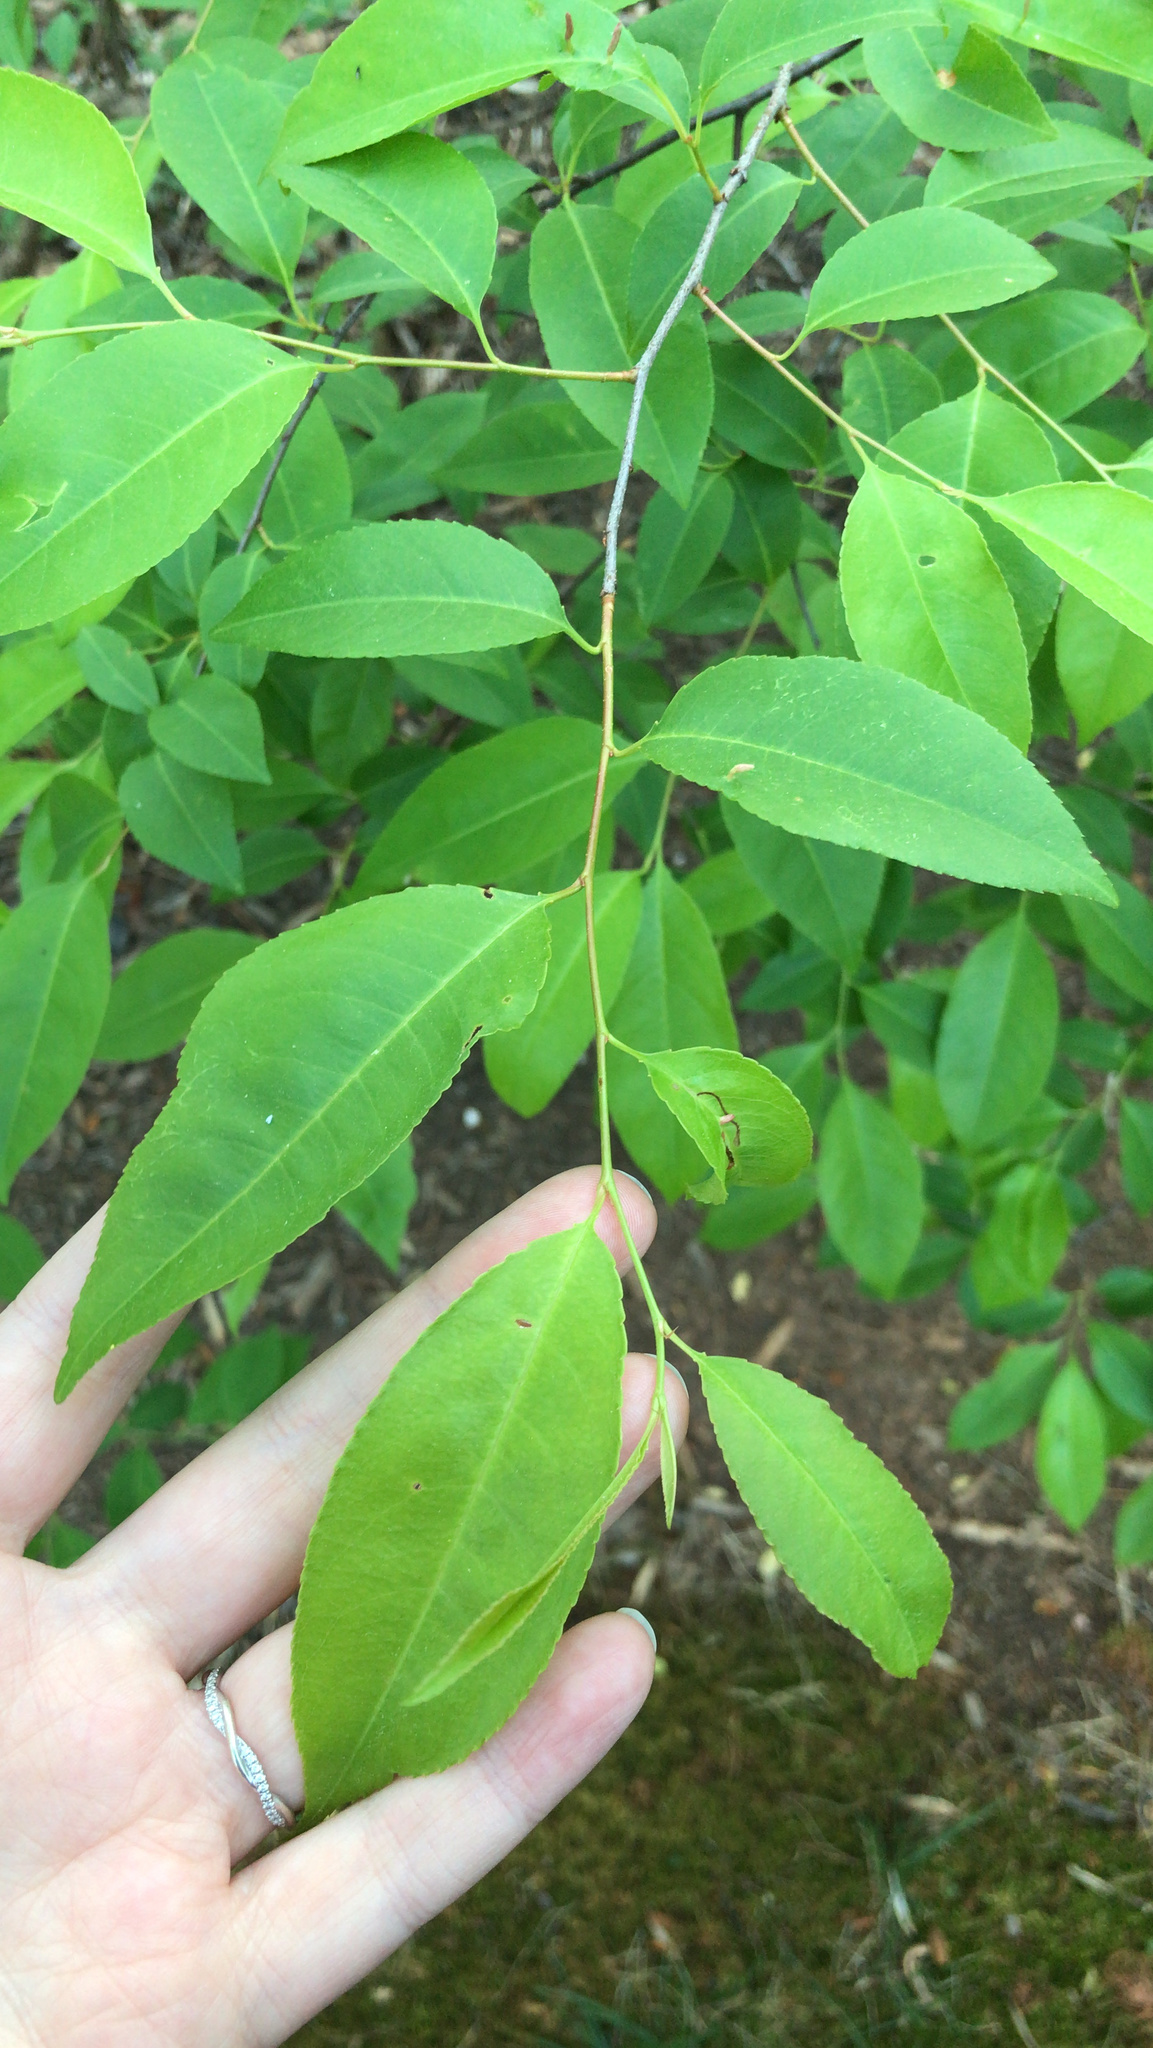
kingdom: Plantae
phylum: Tracheophyta
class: Magnoliopsida
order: Rosales
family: Rosaceae
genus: Prunus
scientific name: Prunus serotina
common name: Black cherry
